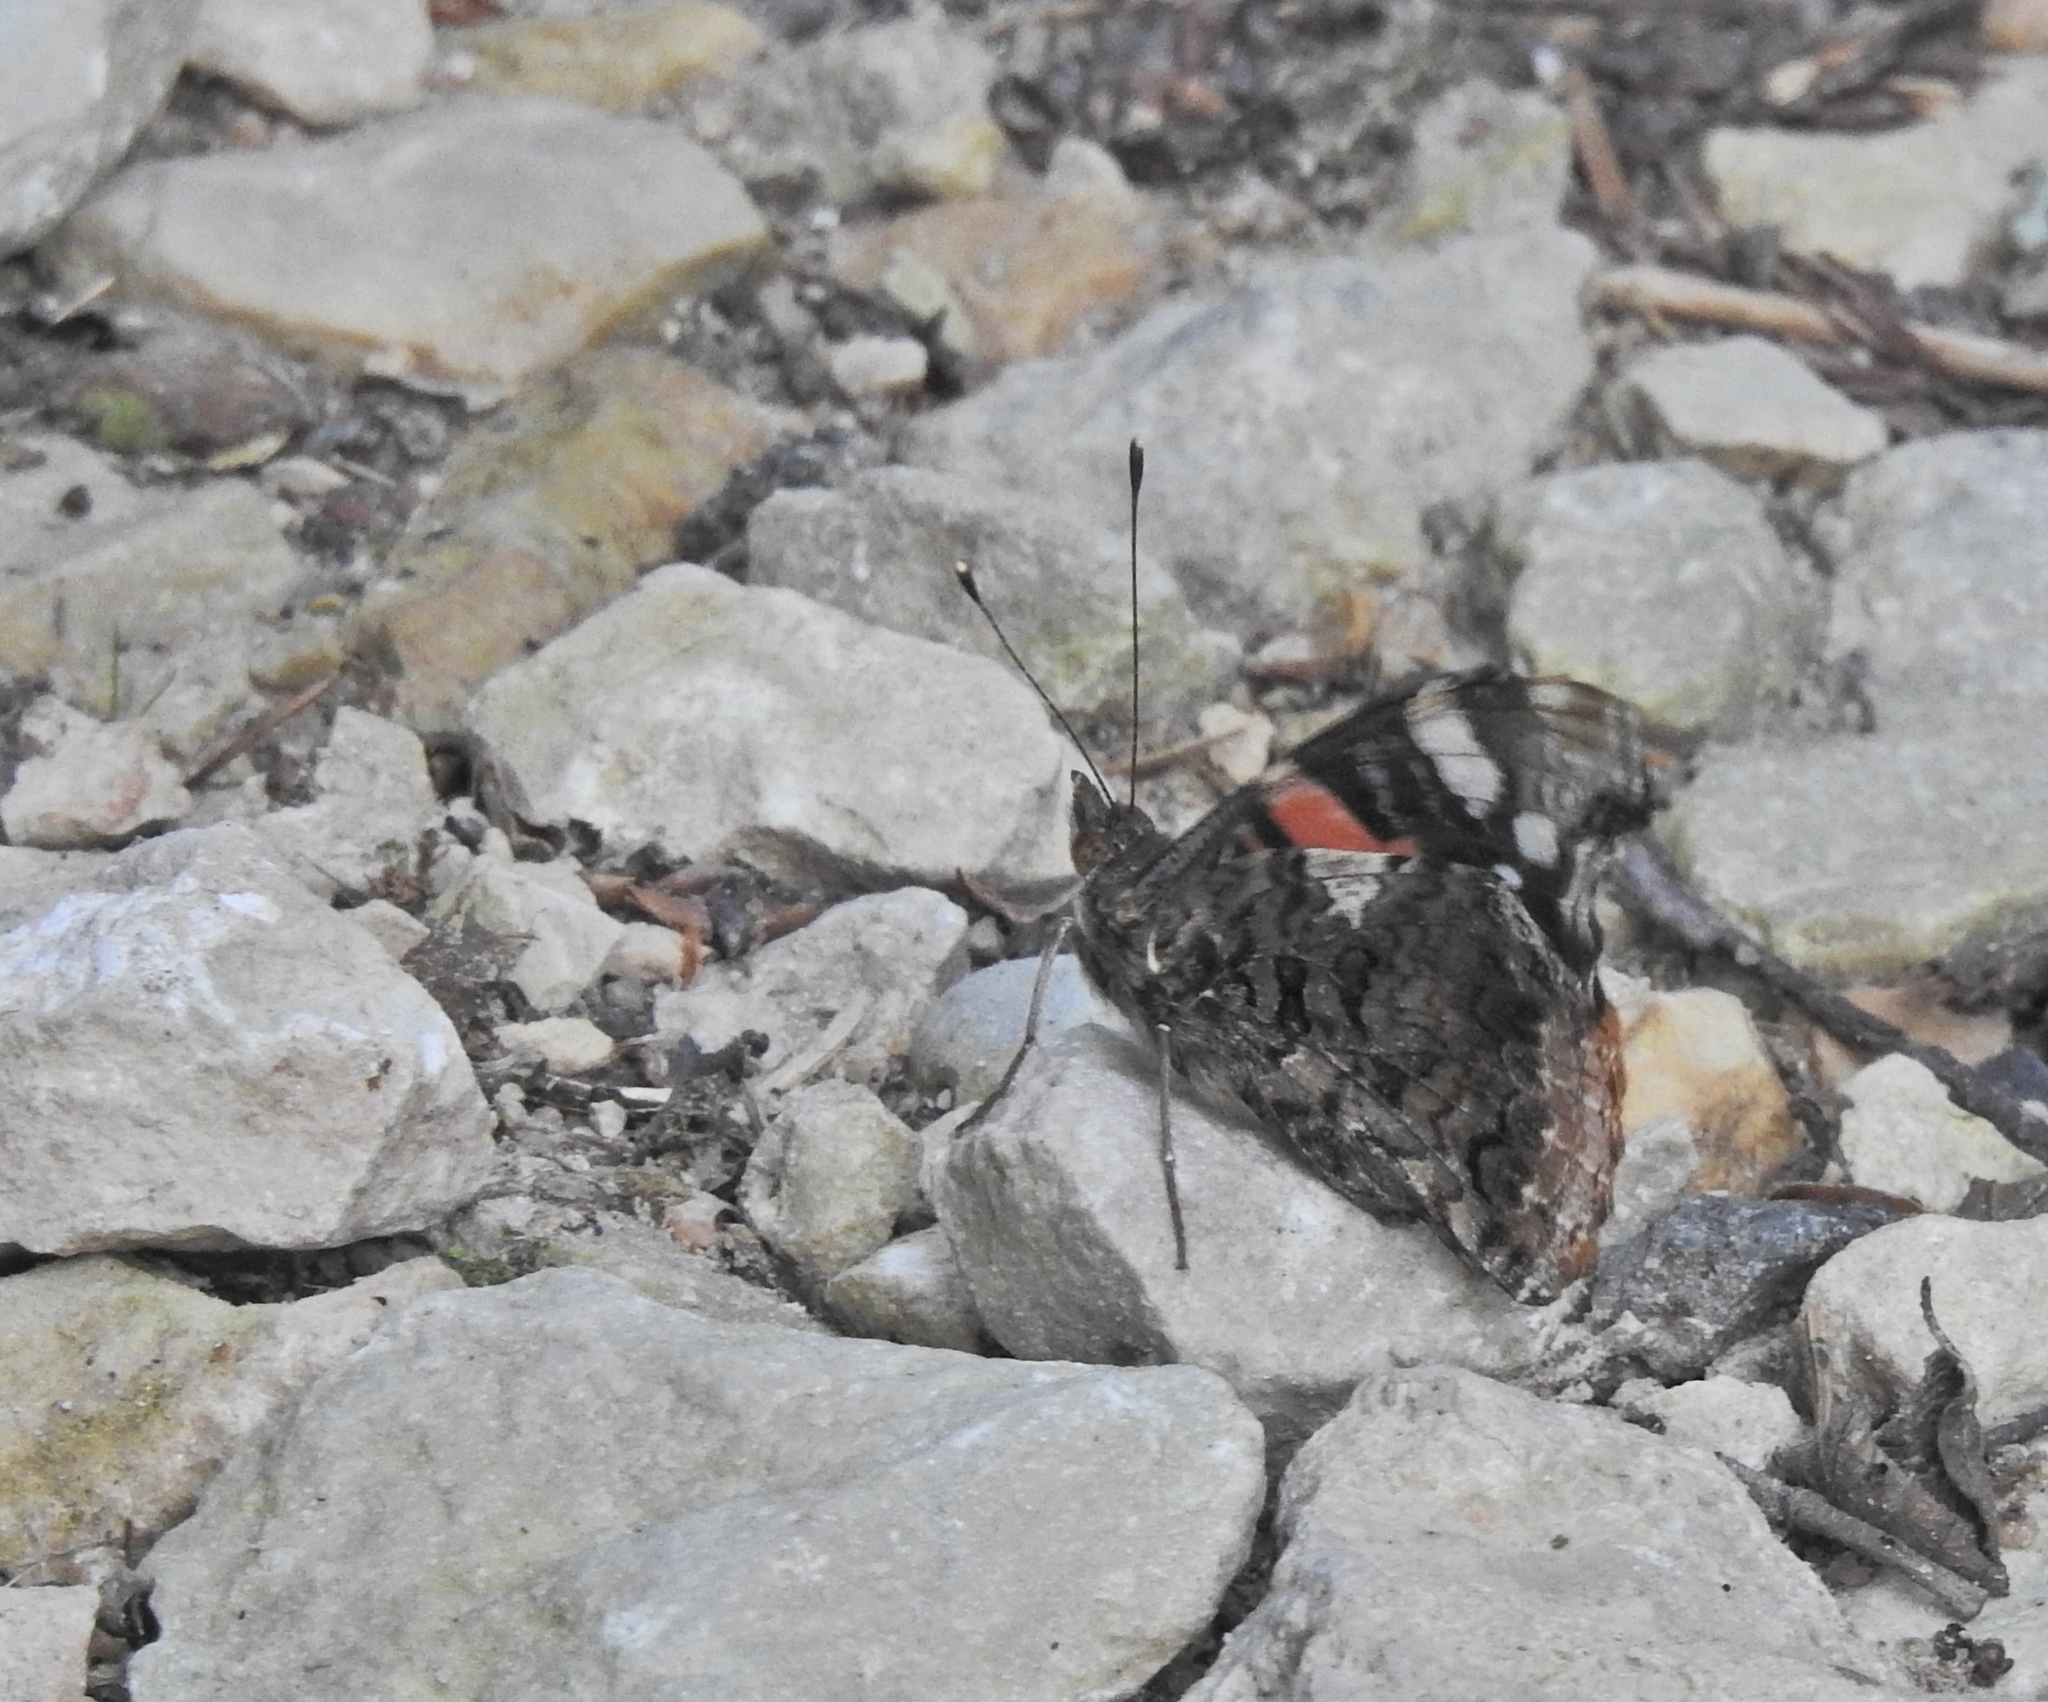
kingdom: Animalia
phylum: Arthropoda
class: Insecta
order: Lepidoptera
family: Nymphalidae
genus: Vanessa
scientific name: Vanessa atalanta
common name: Red admiral
